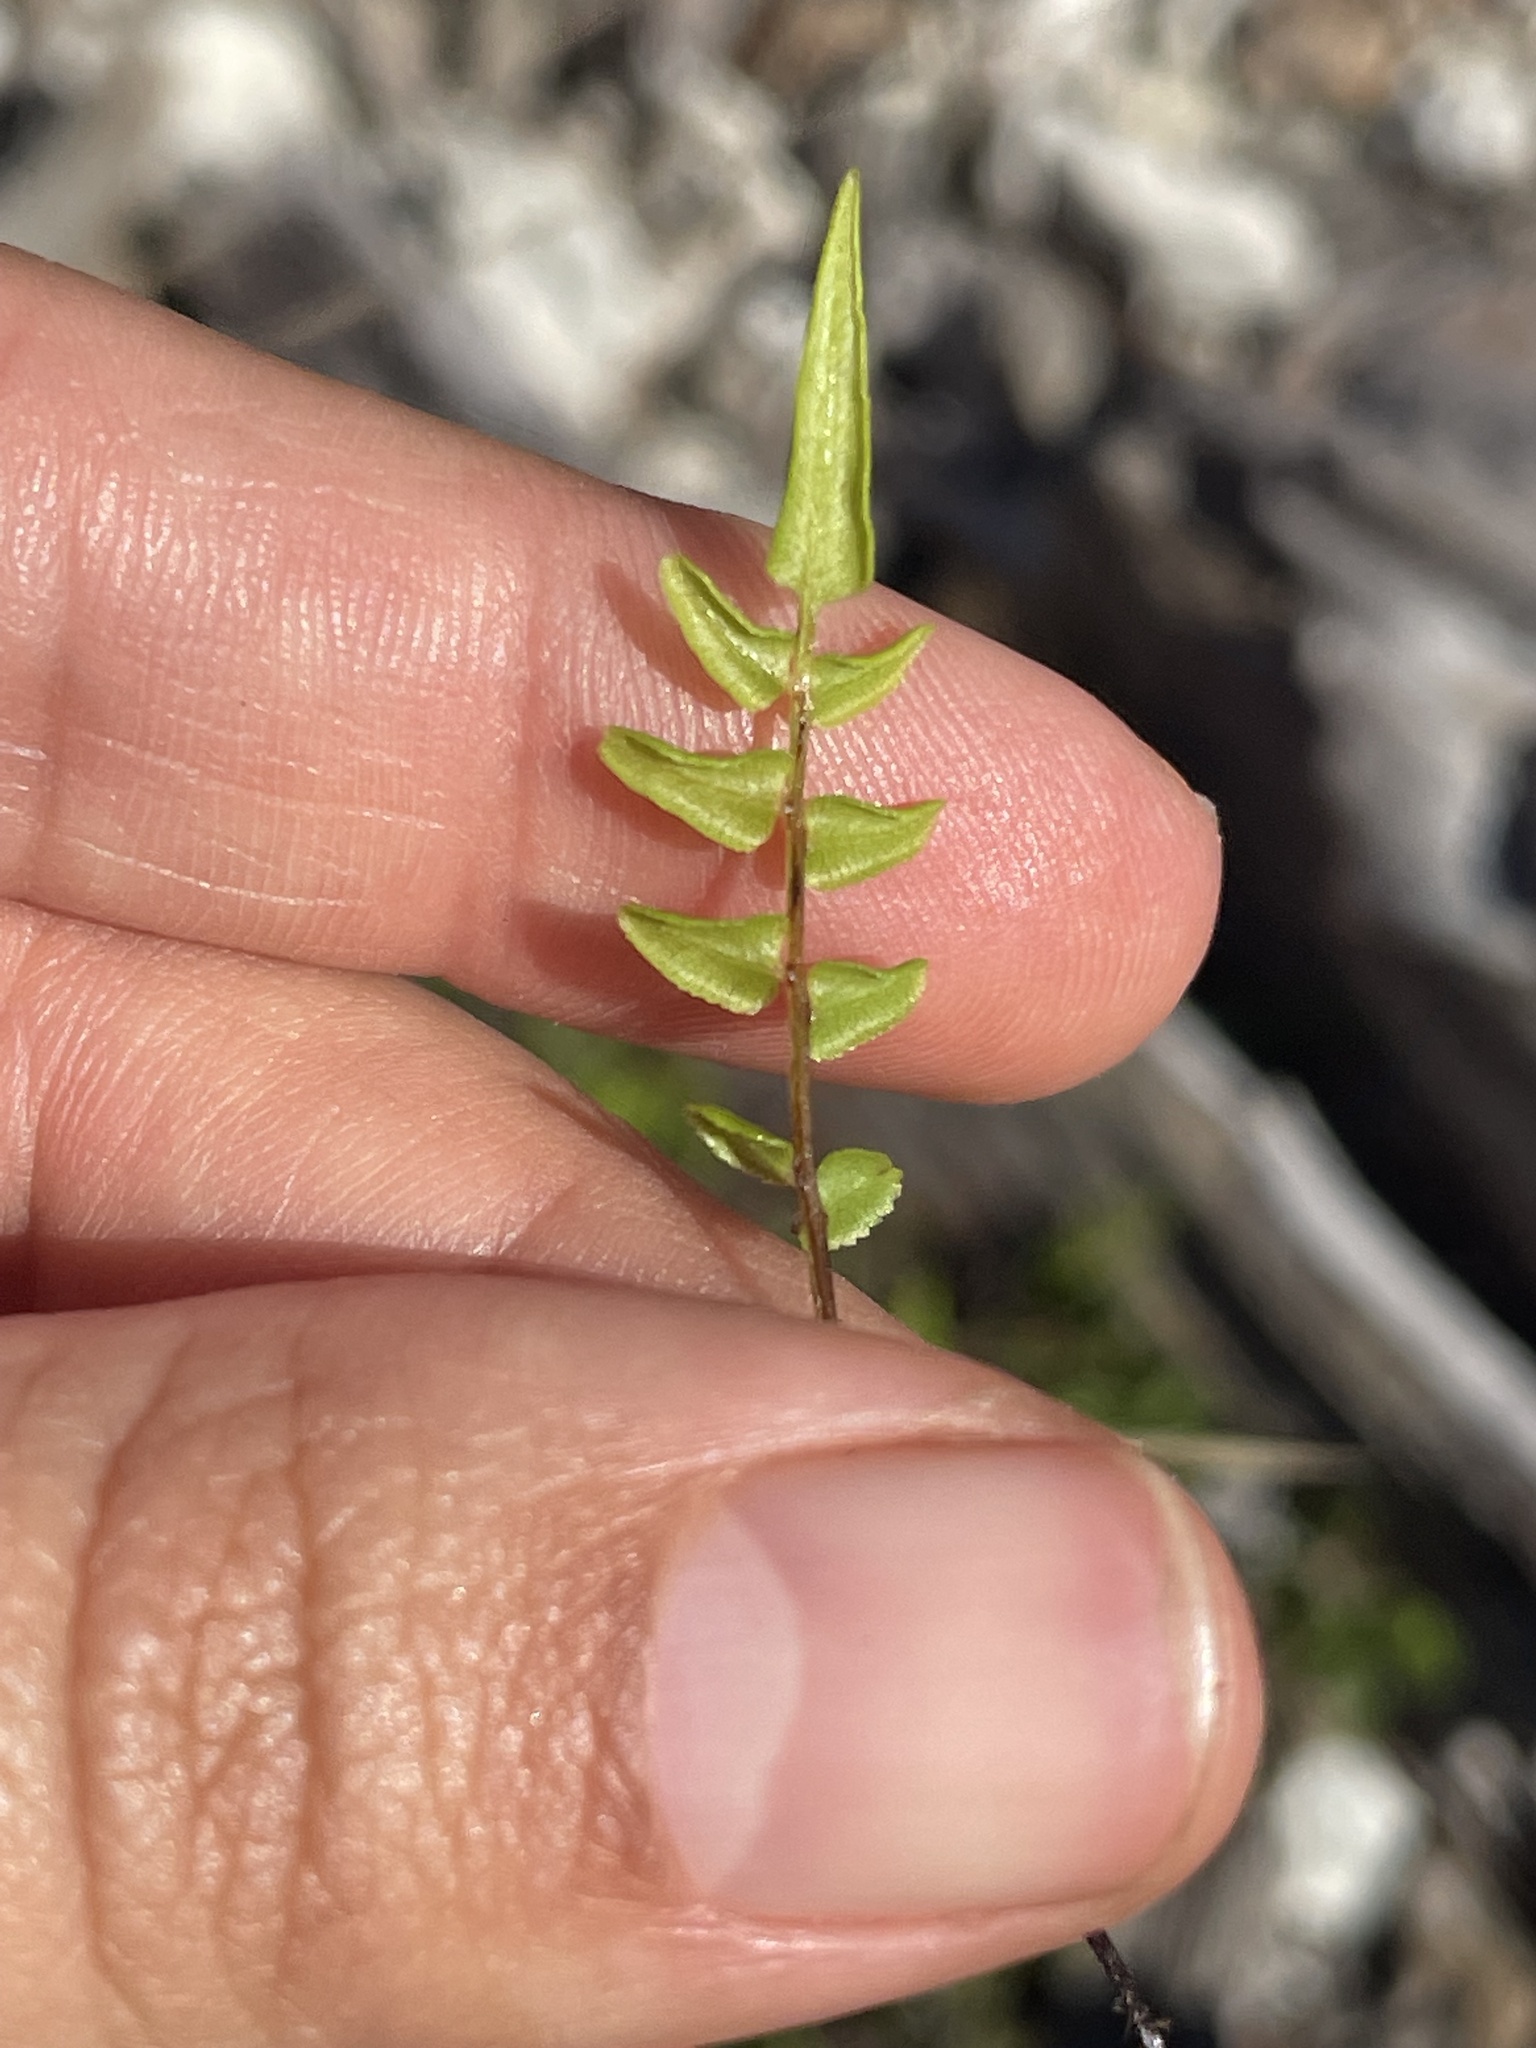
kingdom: Plantae
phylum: Tracheophyta
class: Polypodiopsida
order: Polypodiales
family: Pteridaceae
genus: Pteris
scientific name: Pteris bahamensis
